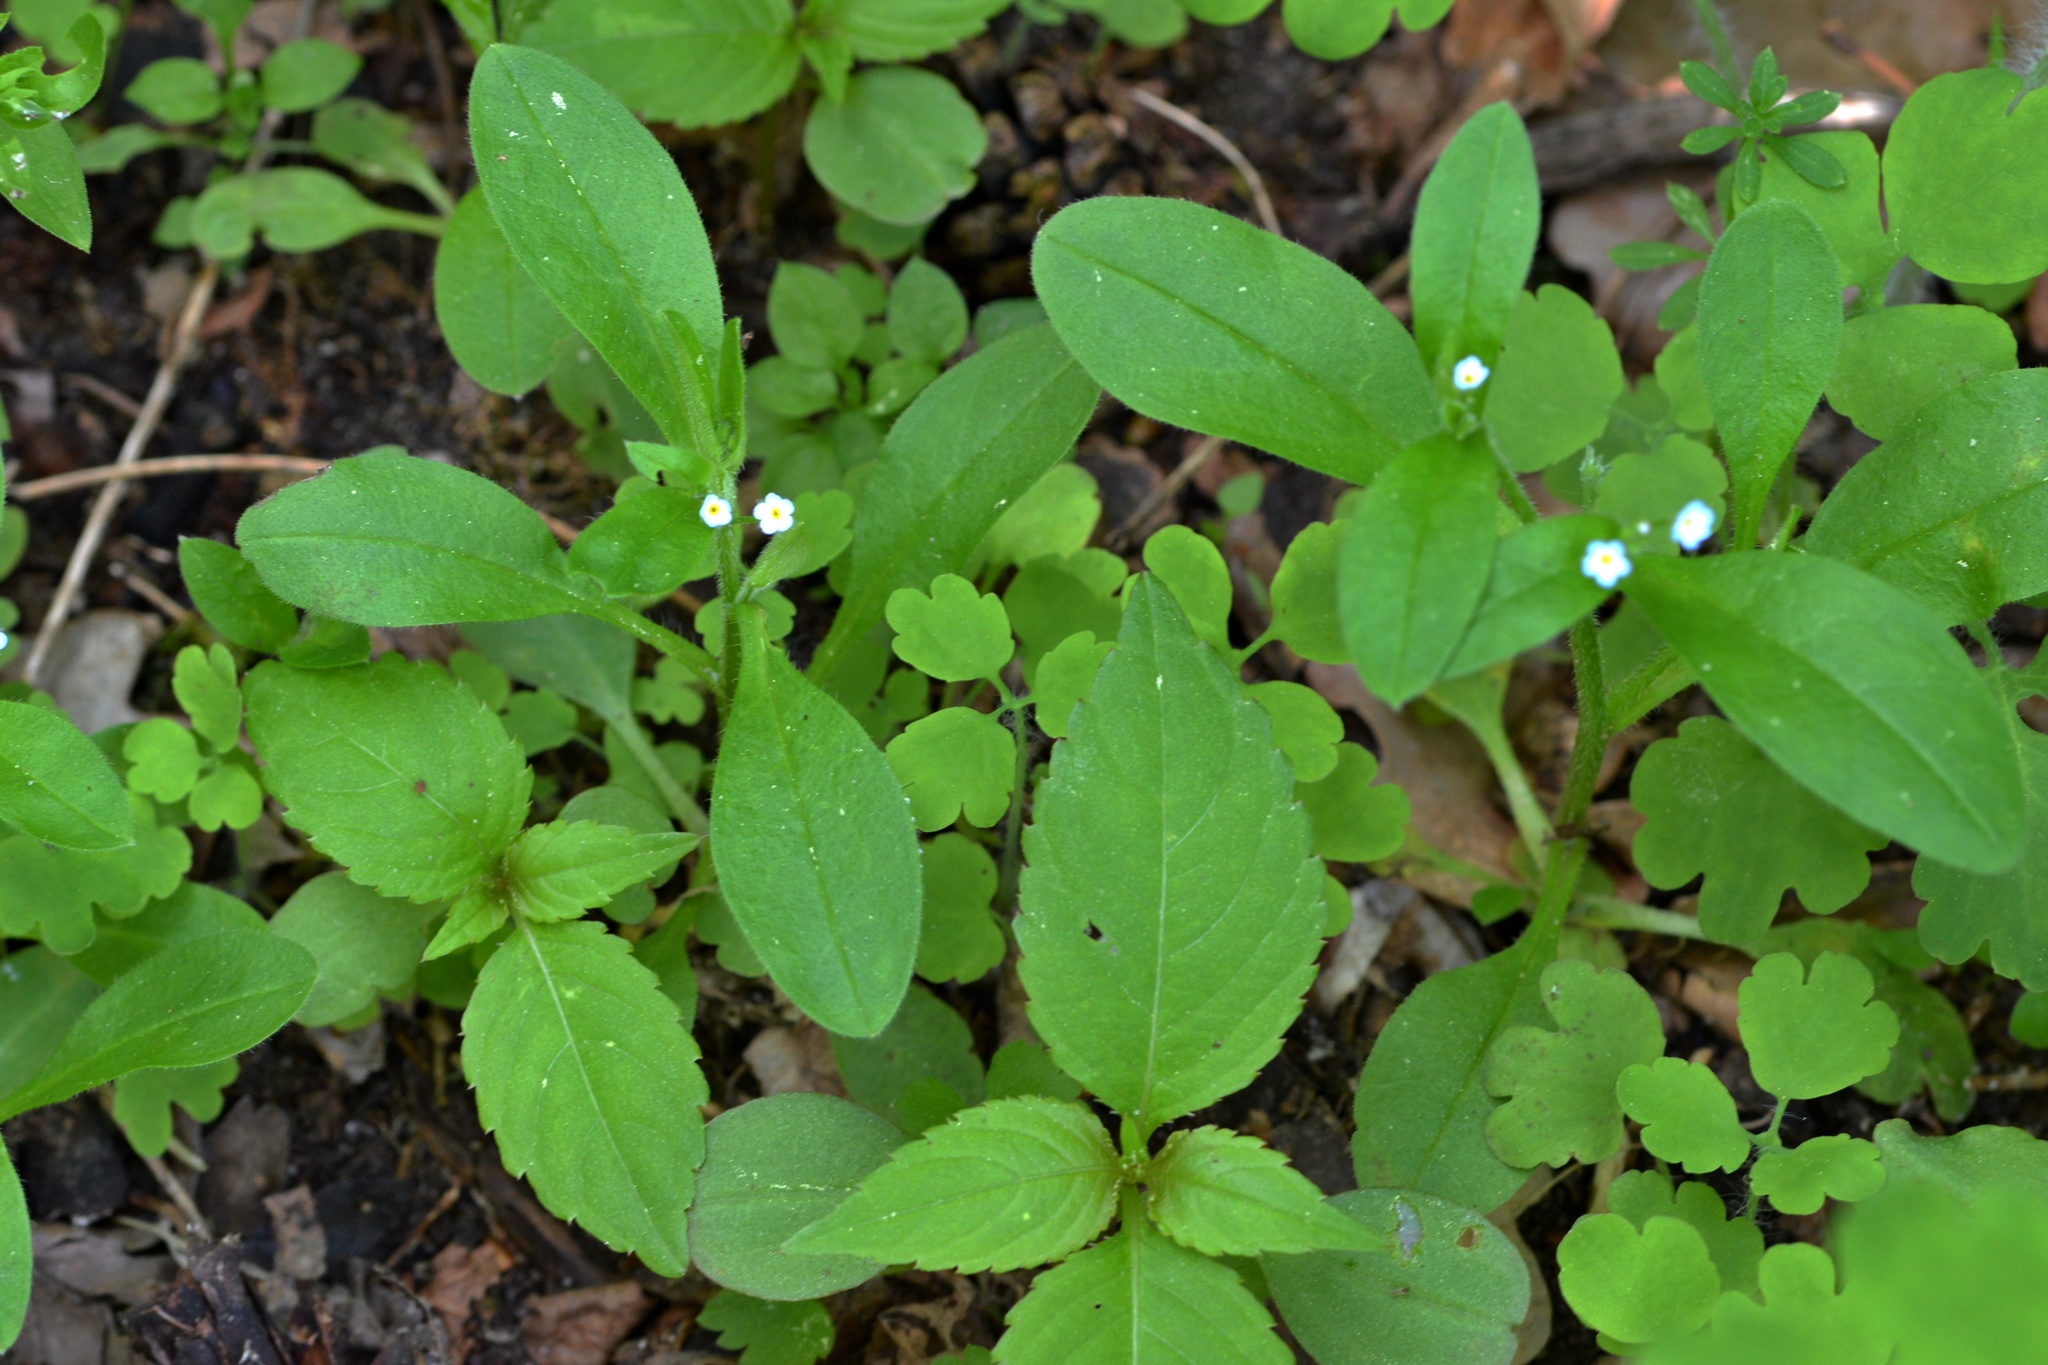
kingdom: Plantae
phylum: Tracheophyta
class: Magnoliopsida
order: Boraginales
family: Boraginaceae
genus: Myosotis
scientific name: Myosotis sparsiflora
